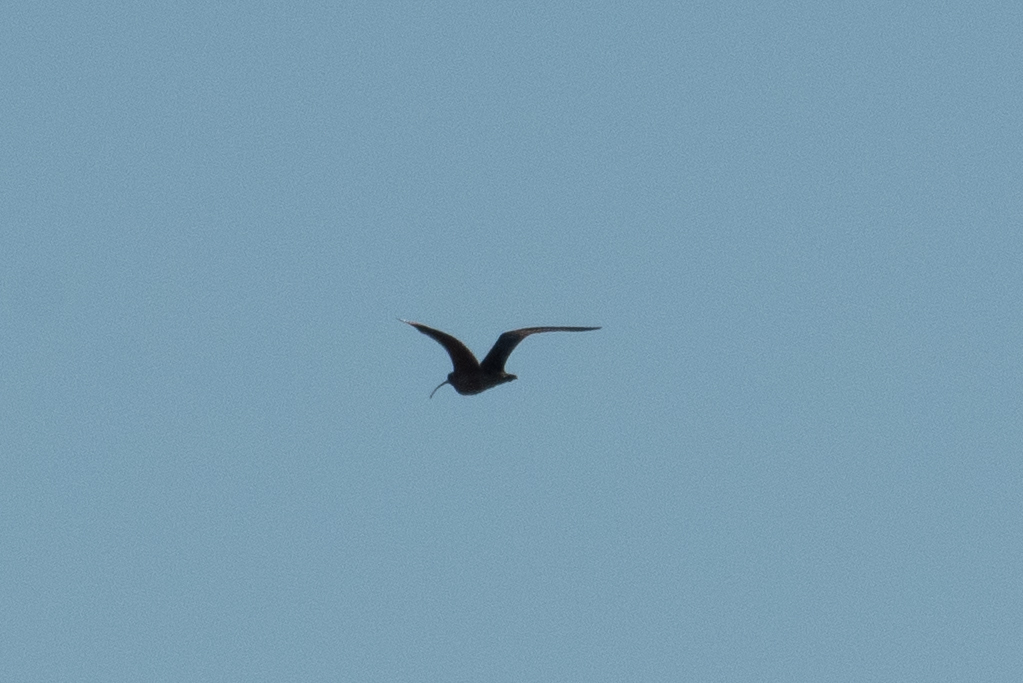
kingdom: Animalia
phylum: Chordata
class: Aves
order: Charadriiformes
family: Scolopacidae
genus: Numenius
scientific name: Numenius americanus
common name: Long-billed curlew
